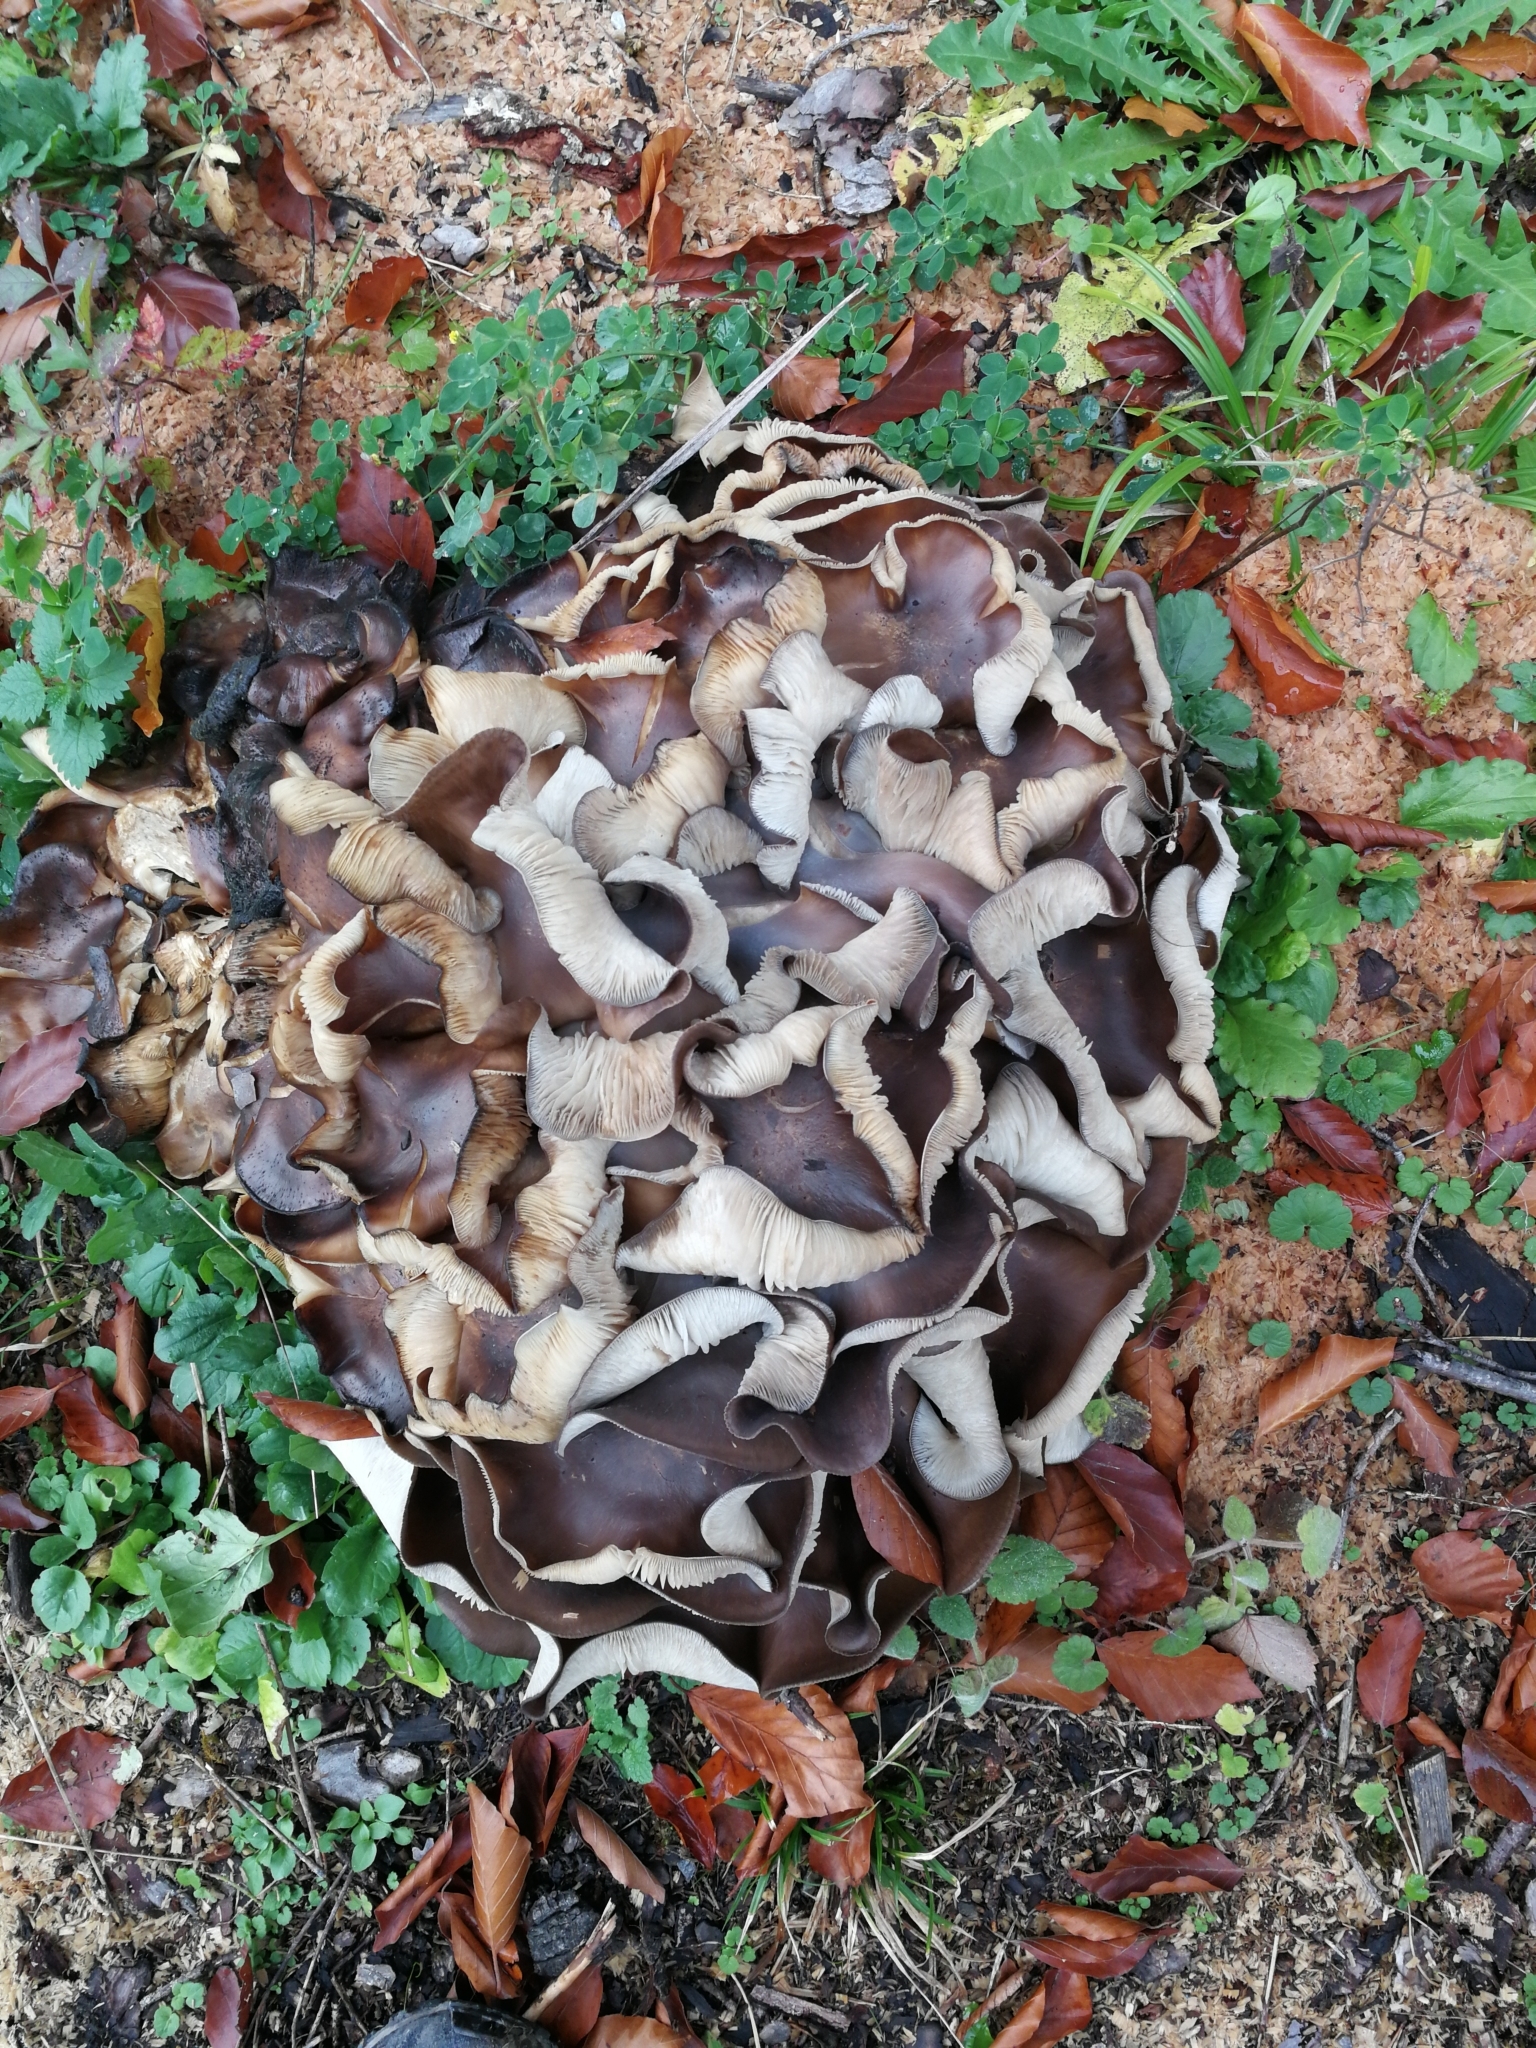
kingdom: Fungi
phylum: Basidiomycota
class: Agaricomycetes
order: Agaricales
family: Lyophyllaceae
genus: Lyophyllum
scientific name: Lyophyllum decastes
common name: Clustered domecap
